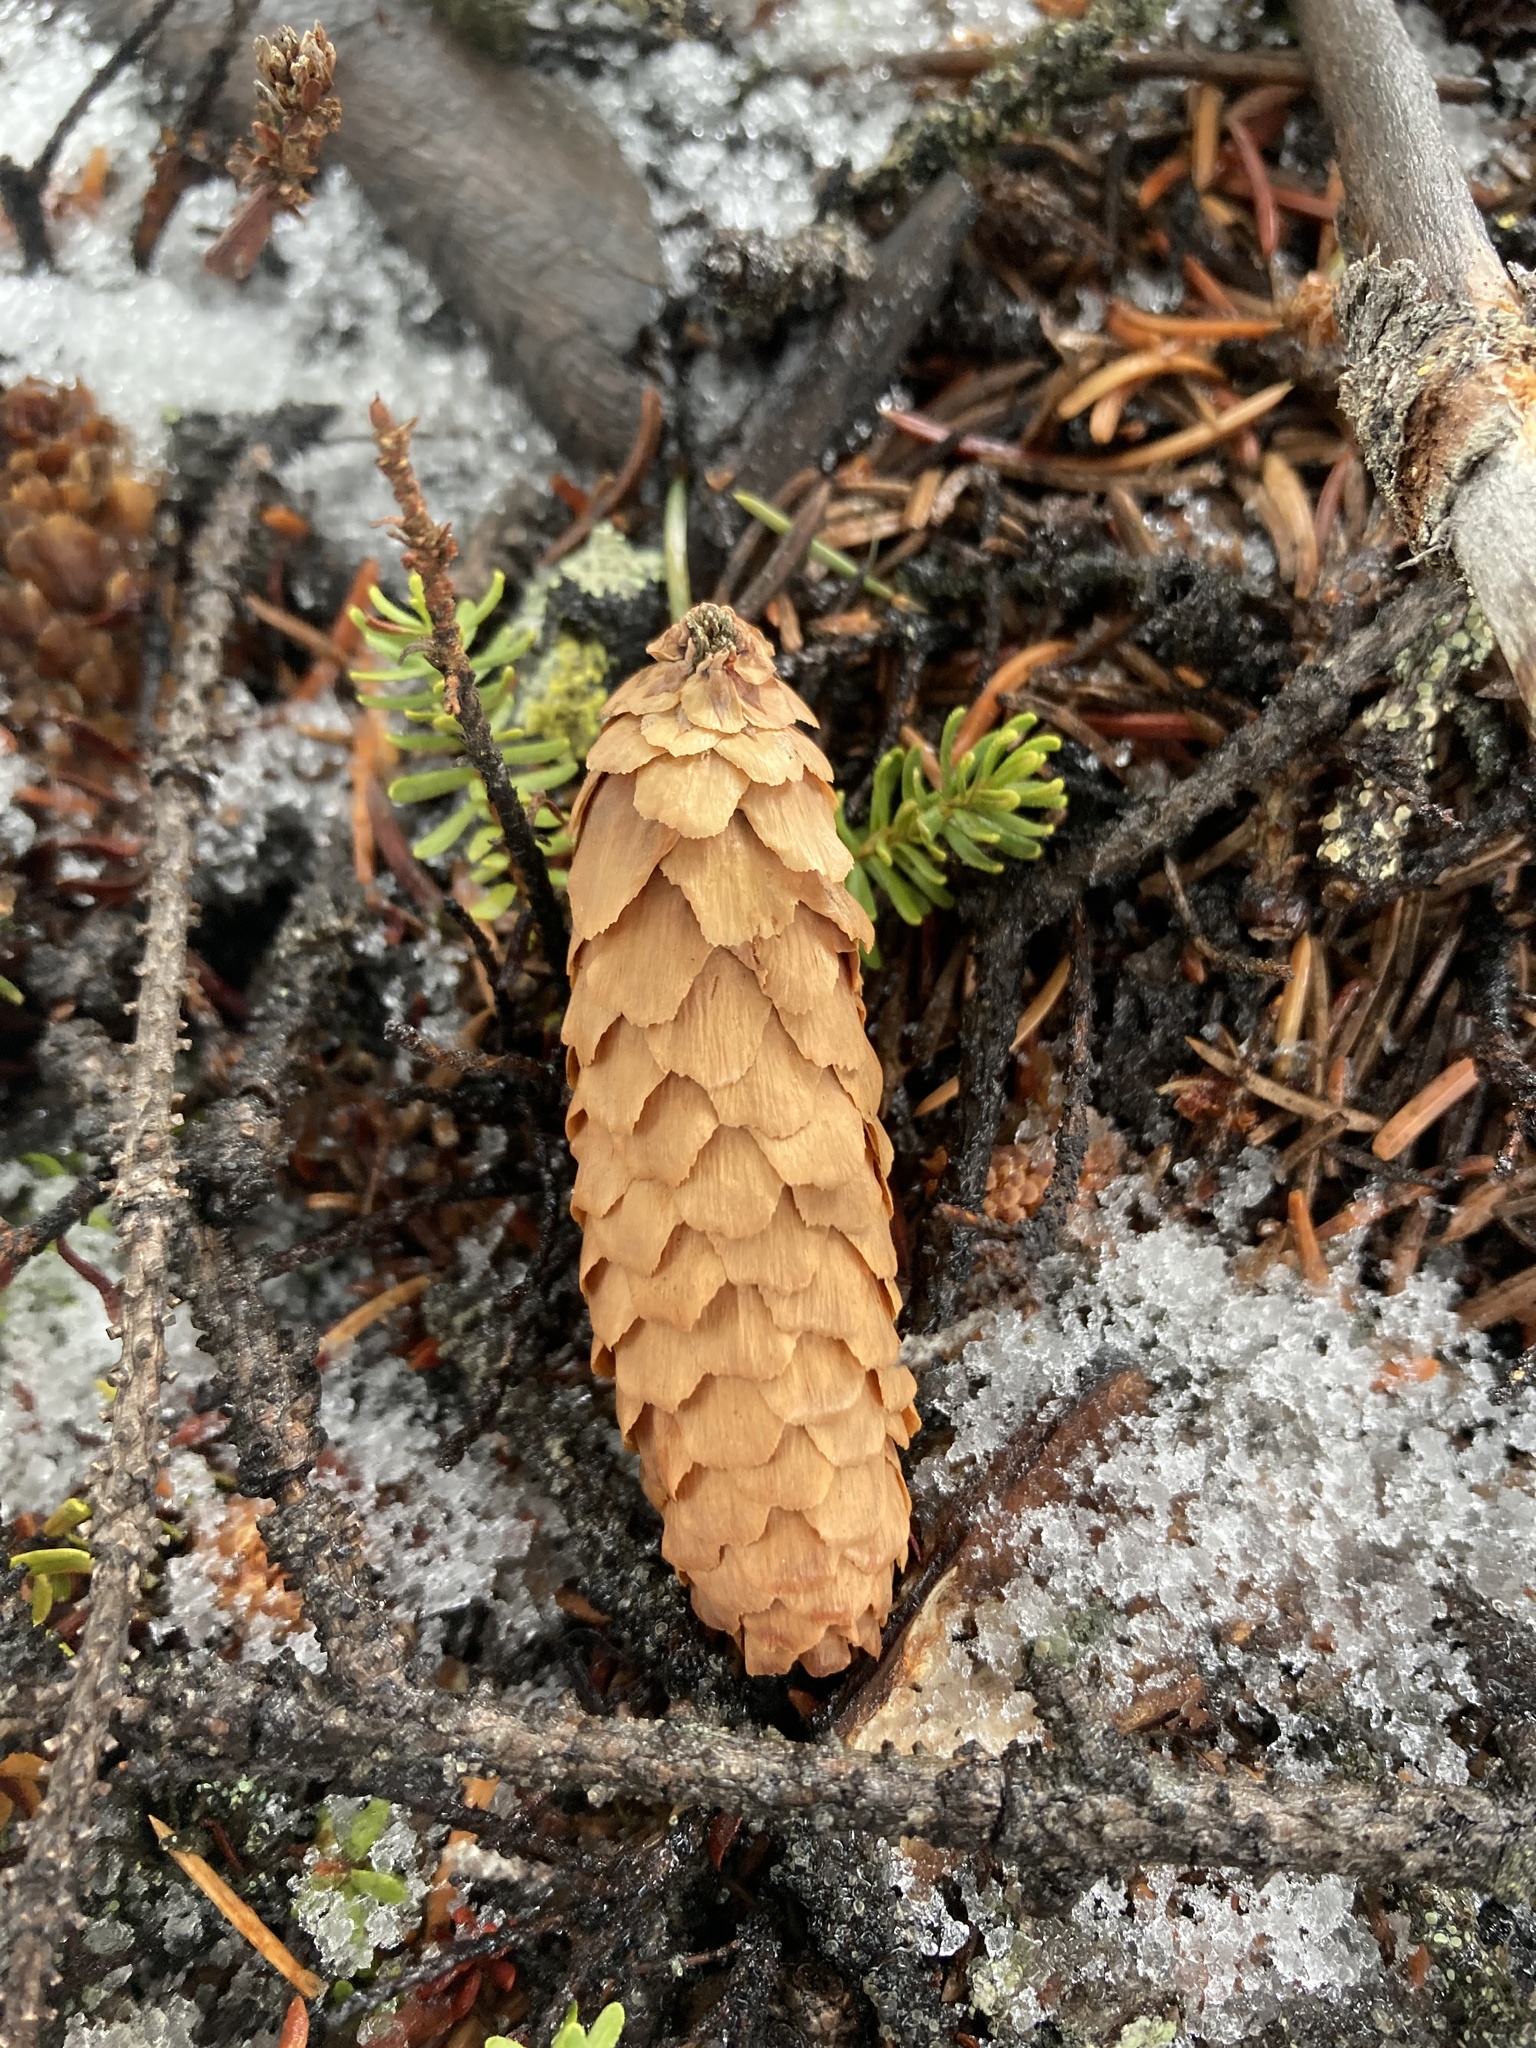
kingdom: Plantae
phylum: Tracheophyta
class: Pinopsida
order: Pinales
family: Pinaceae
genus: Picea
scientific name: Picea engelmannii
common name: Engelmann spruce
